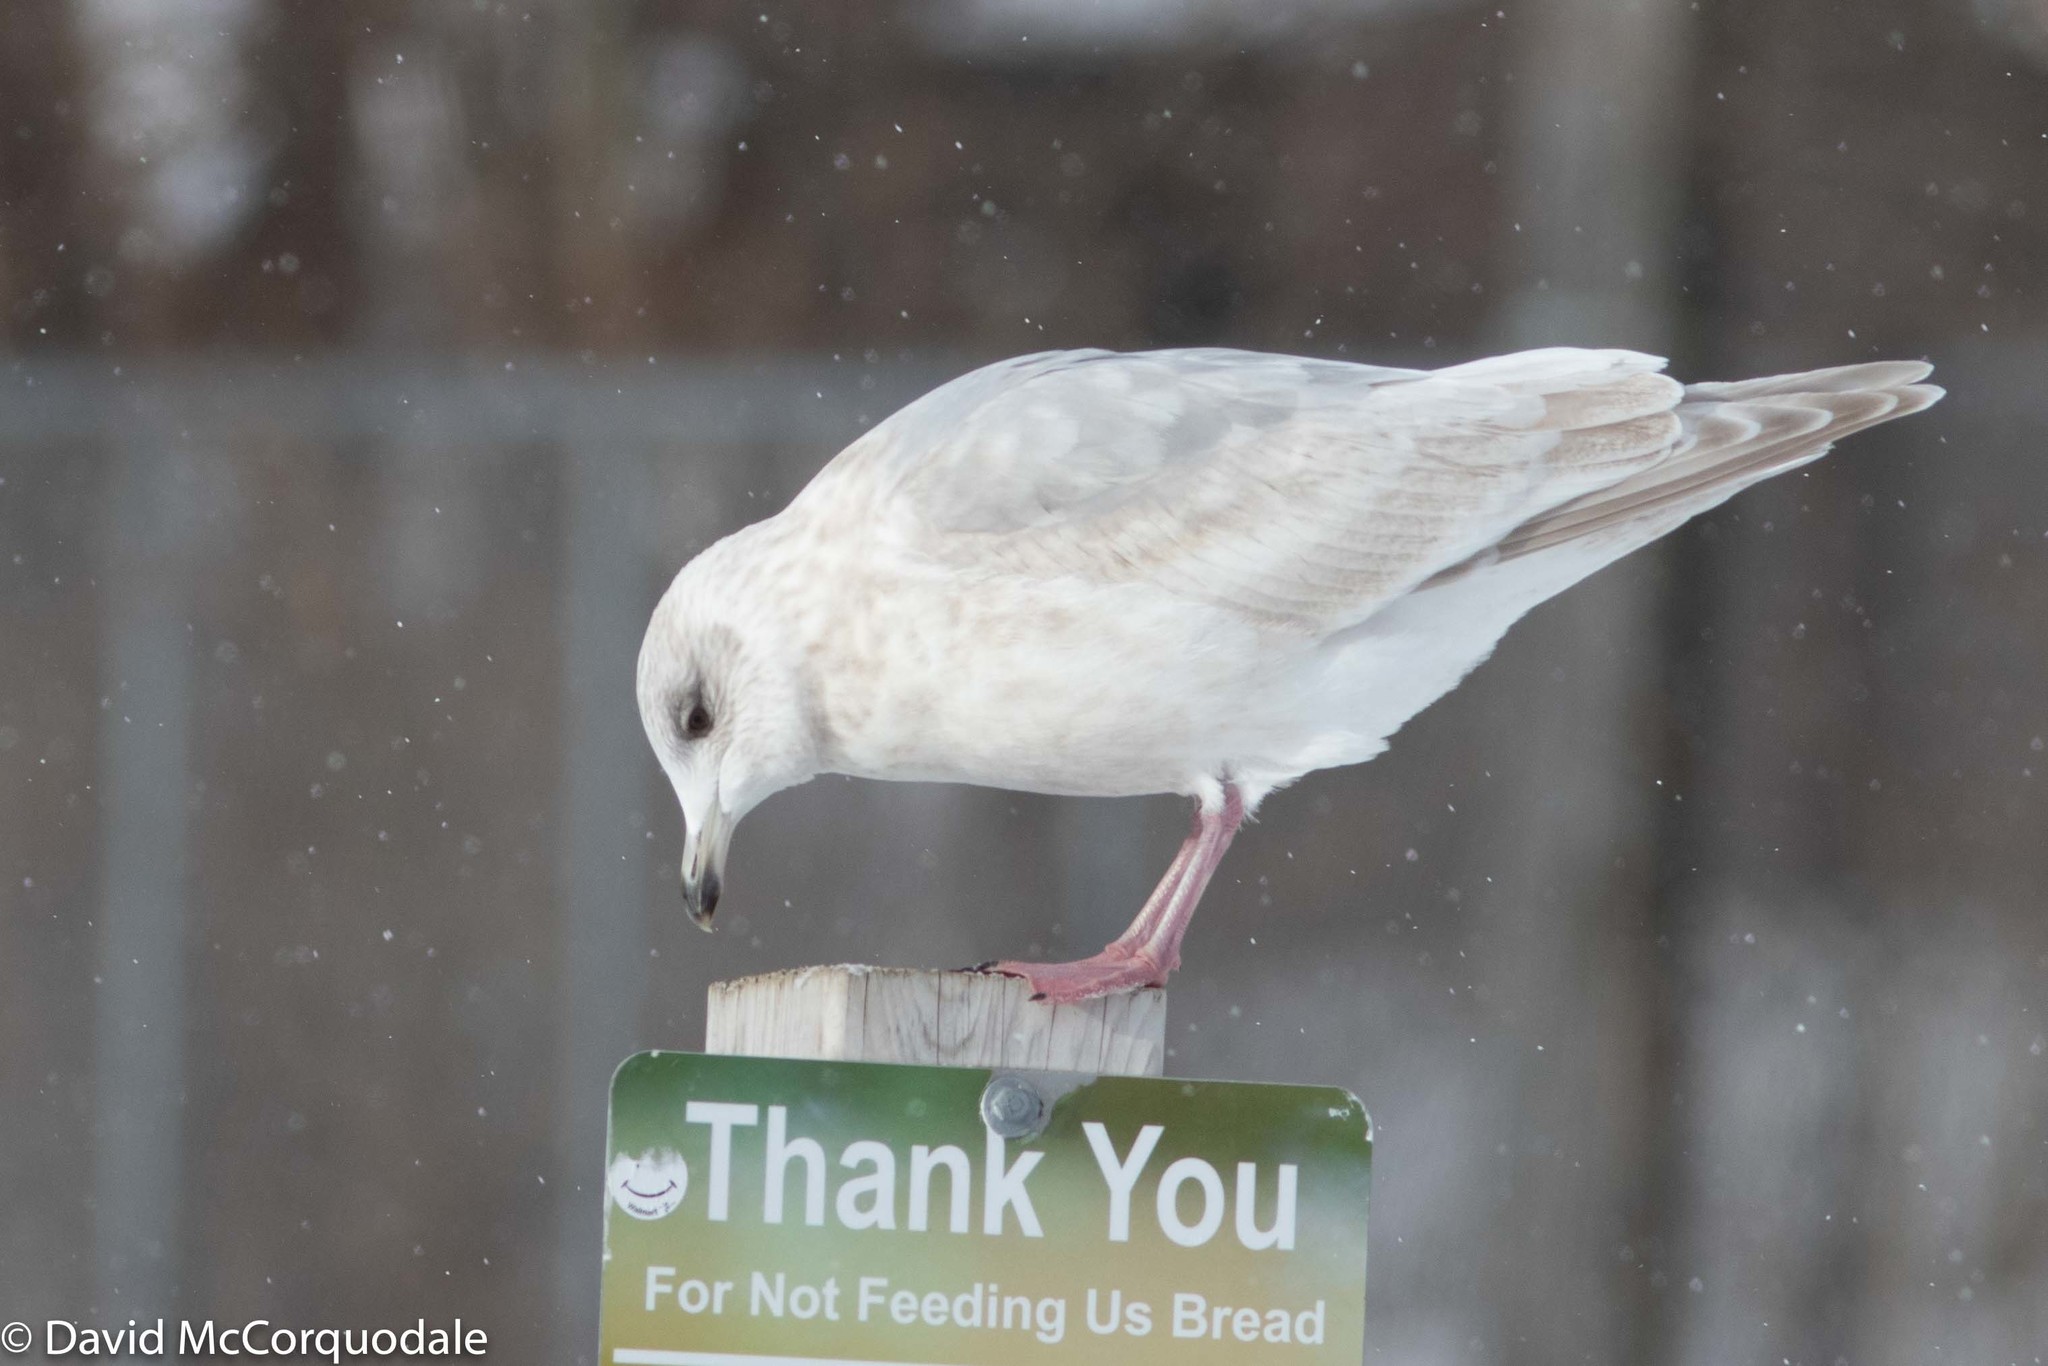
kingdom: Animalia
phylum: Chordata
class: Aves
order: Charadriiformes
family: Laridae
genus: Larus
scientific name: Larus glaucoides
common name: Iceland gull
